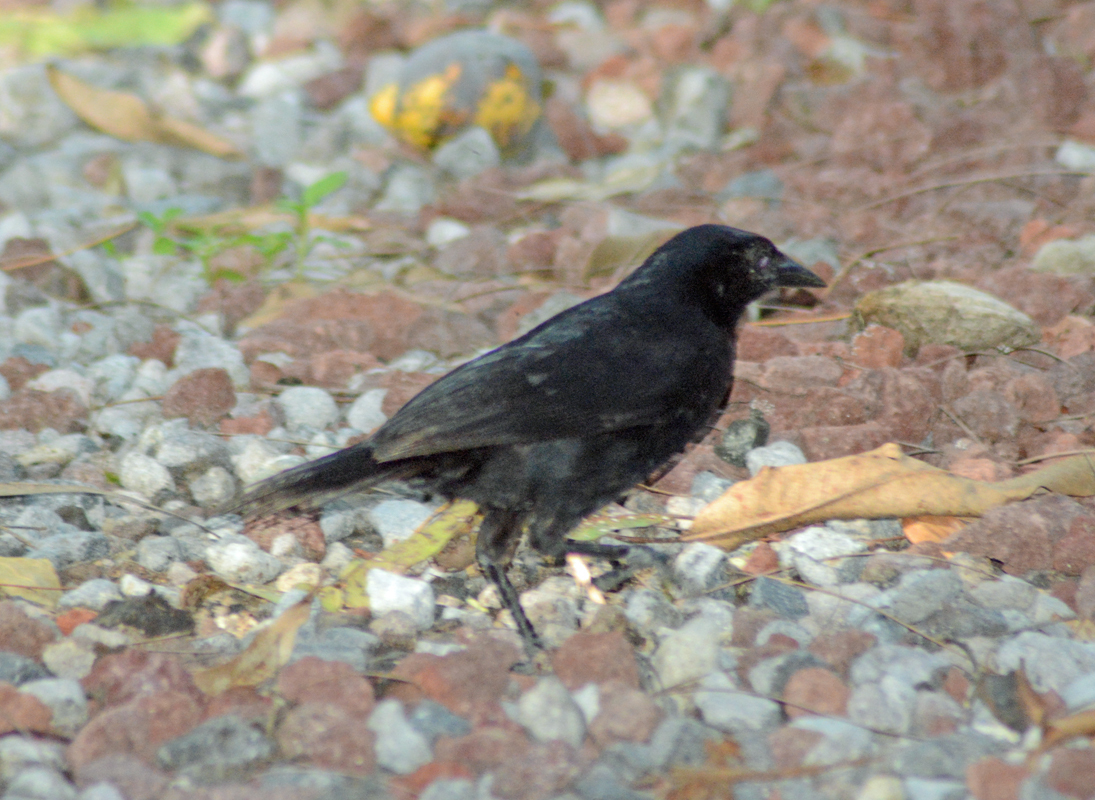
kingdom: Animalia
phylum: Chordata
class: Aves
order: Passeriformes
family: Icteridae
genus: Dives
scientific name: Dives dives
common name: Melodious blackbird
